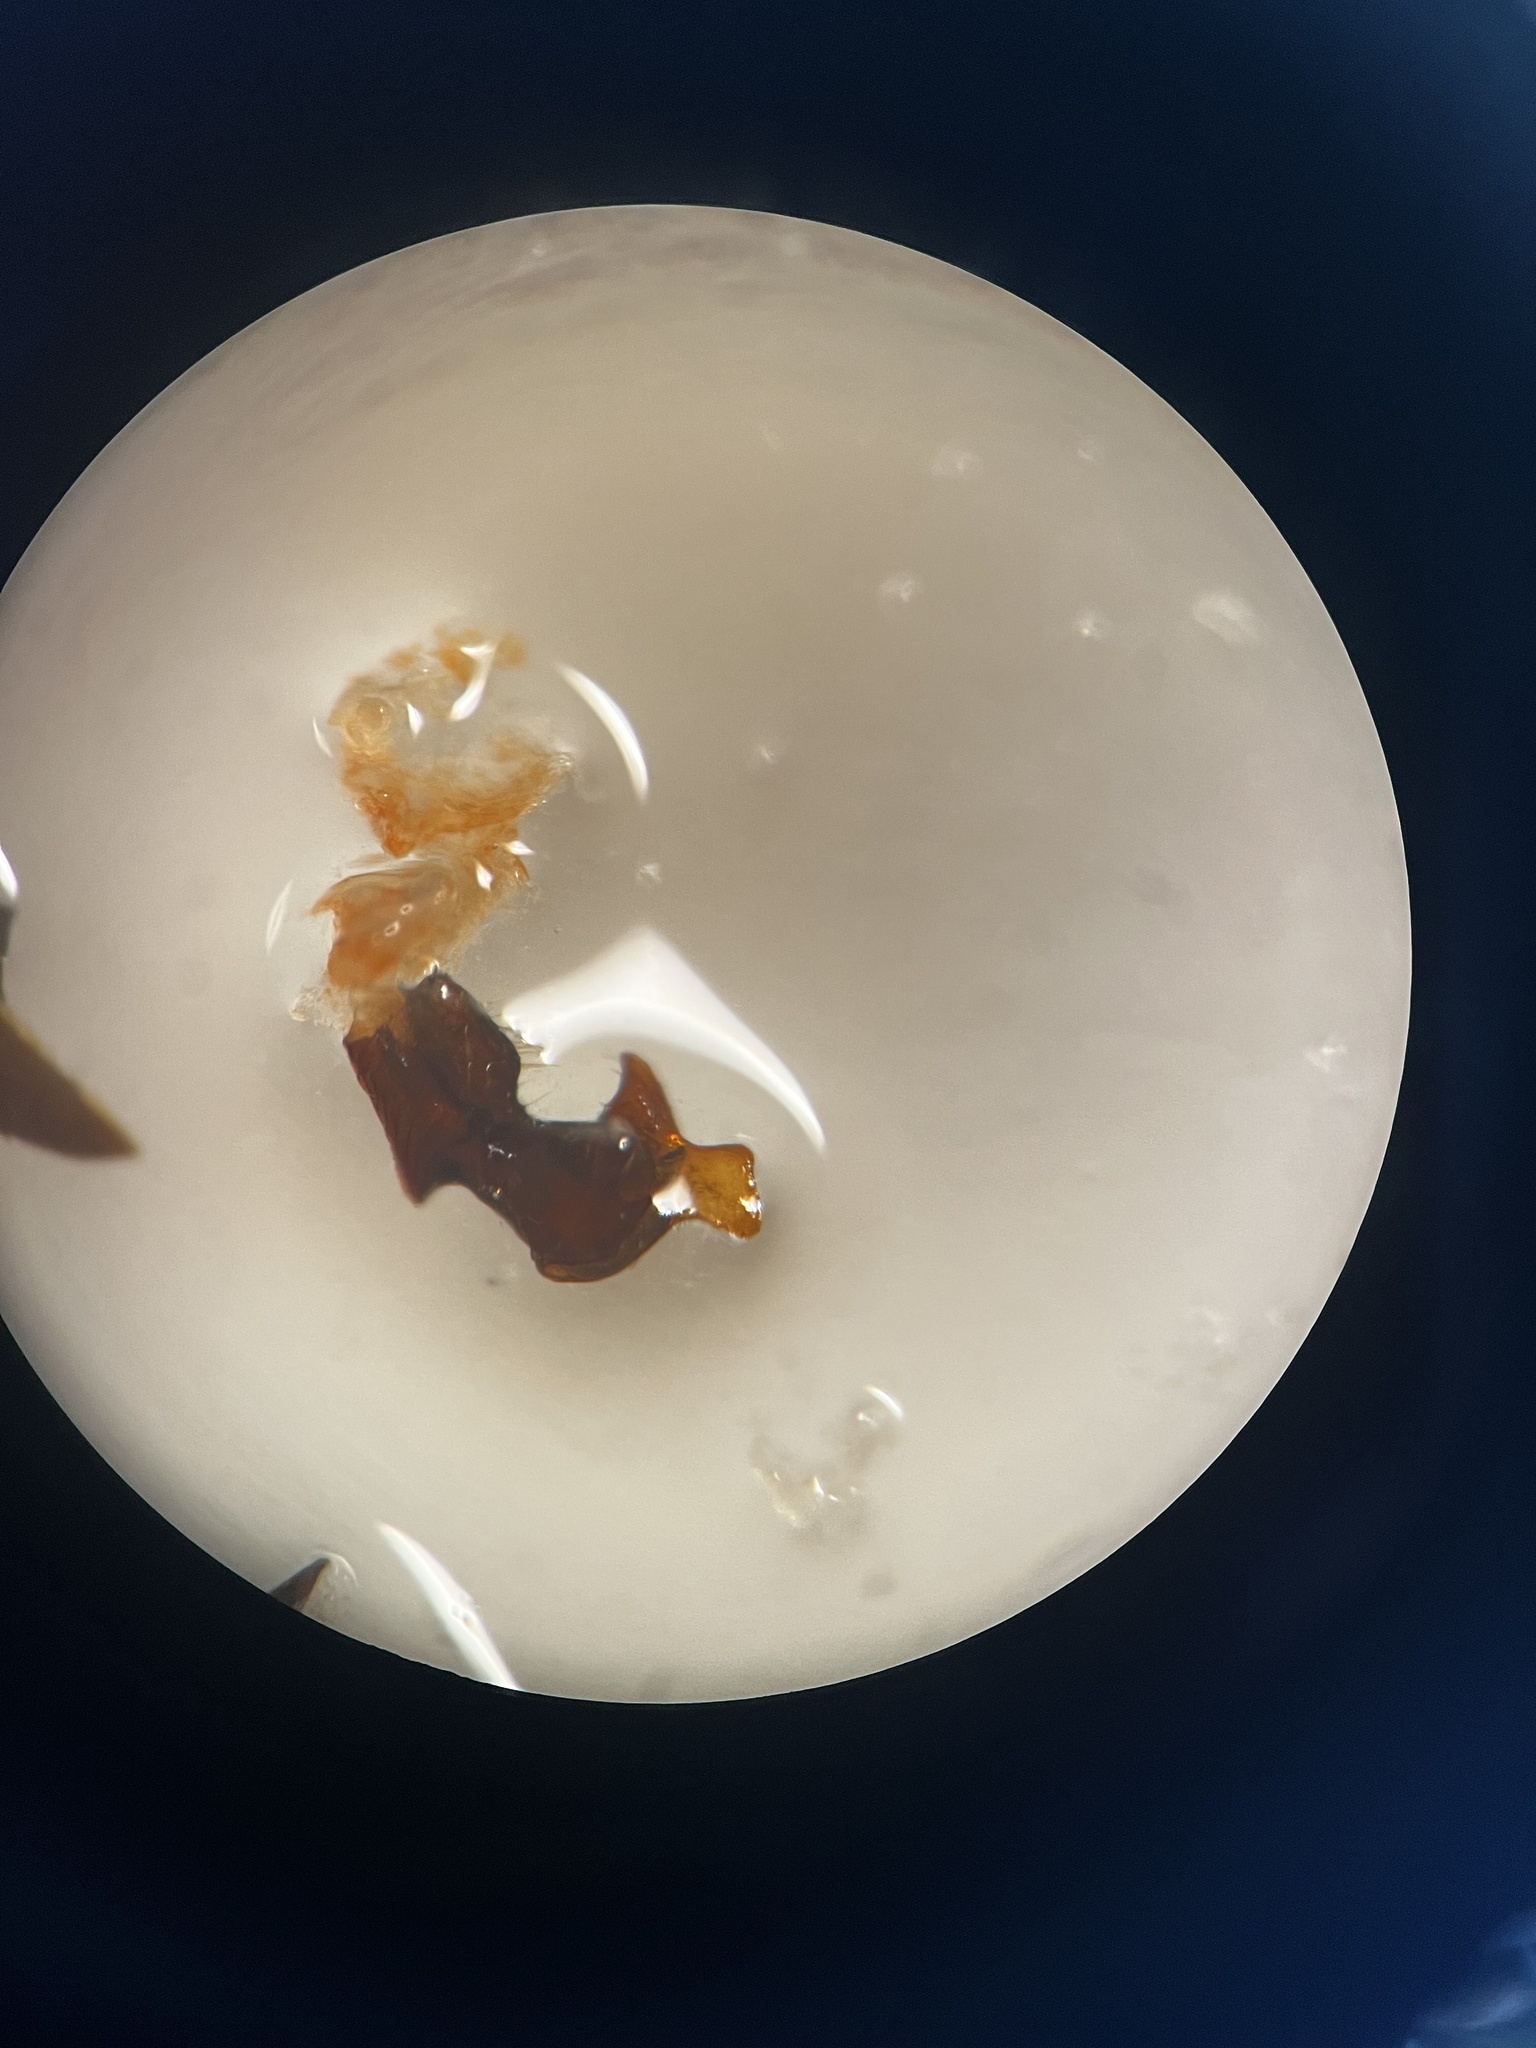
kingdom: Animalia
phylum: Arthropoda
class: Insecta
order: Hemiptera
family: Cixiidae
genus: Reptalus
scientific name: Reptalus panzeri
